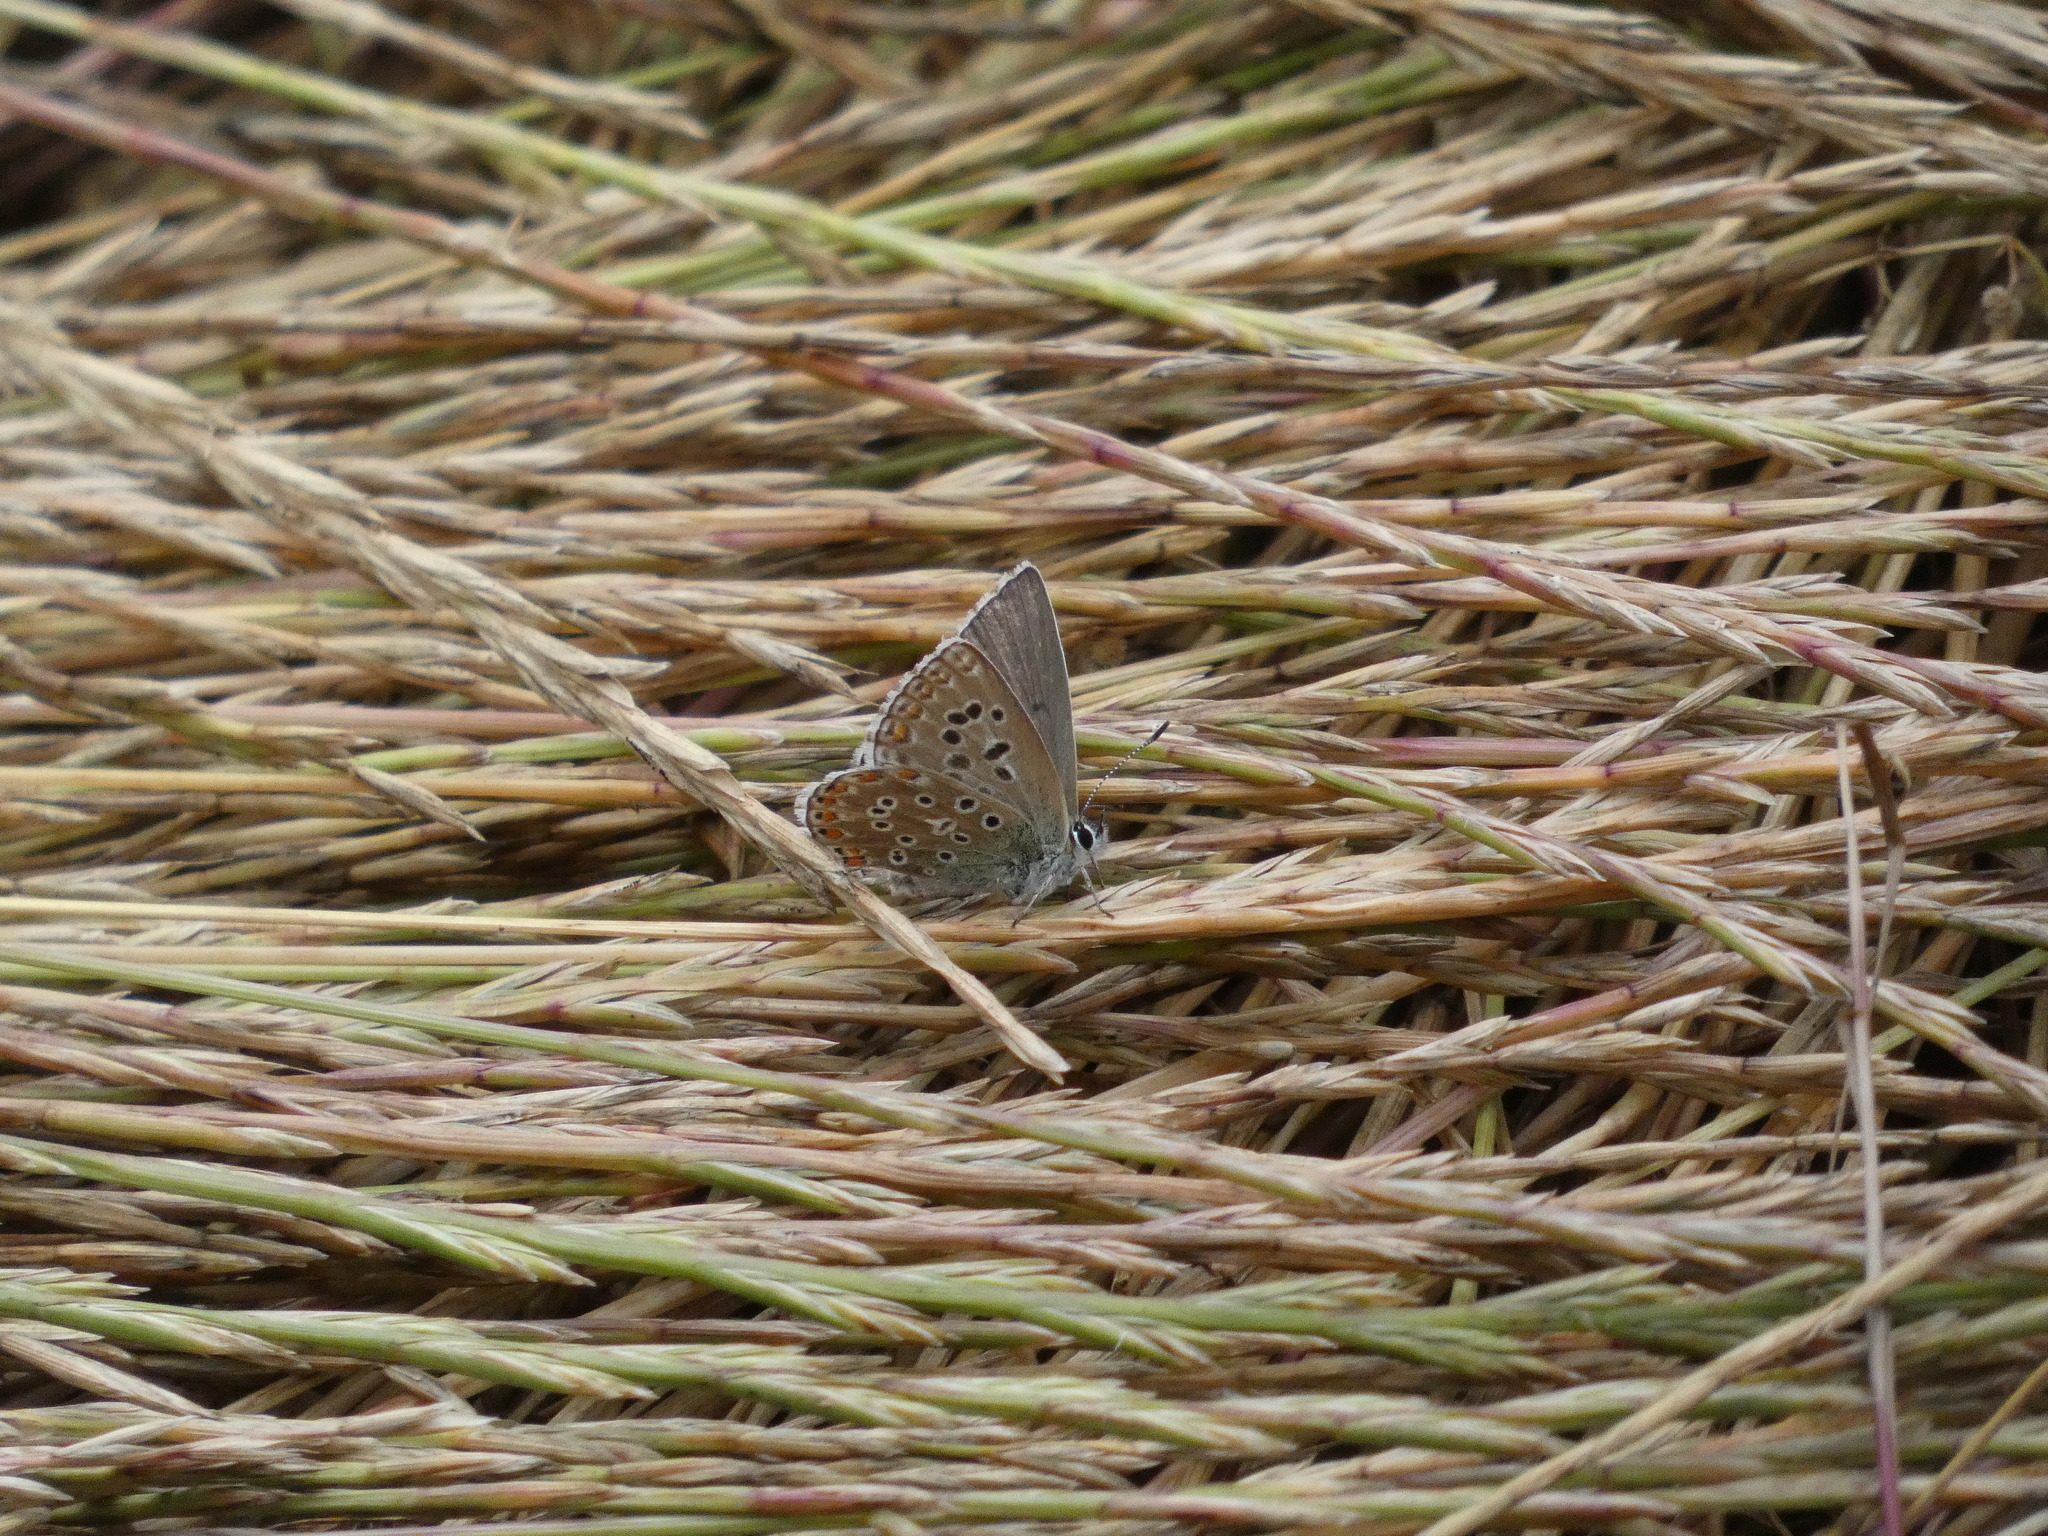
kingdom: Animalia
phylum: Arthropoda
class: Insecta
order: Lepidoptera
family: Lycaenidae
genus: Lysandra
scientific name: Lysandra bellargus
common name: Adonis blue
